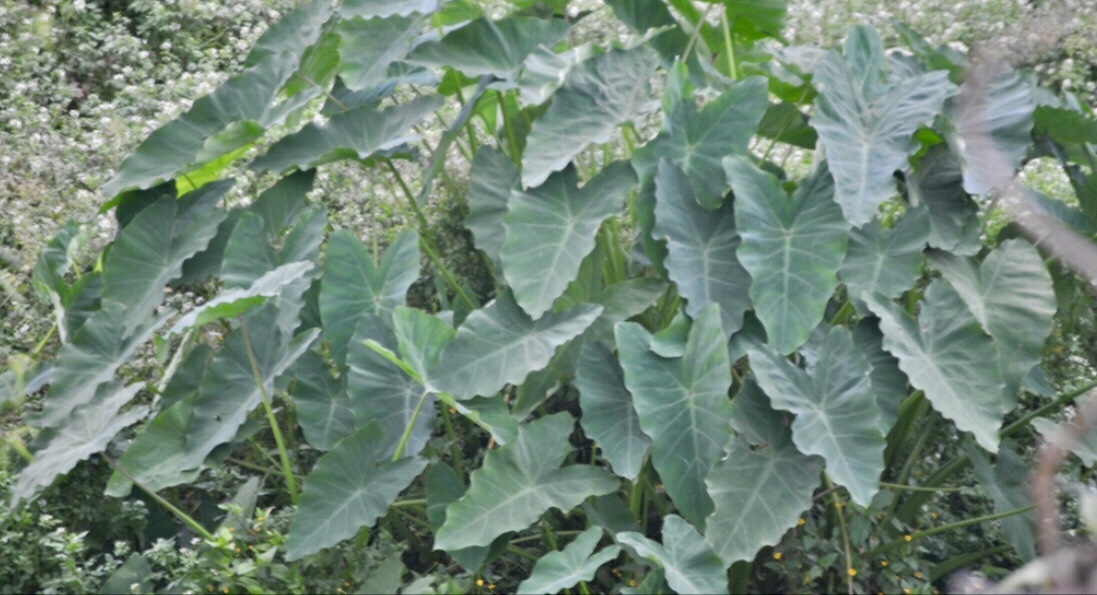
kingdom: Plantae
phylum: Tracheophyta
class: Liliopsida
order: Alismatales
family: Araceae
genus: Colocasia
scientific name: Colocasia esculenta
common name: Taro
